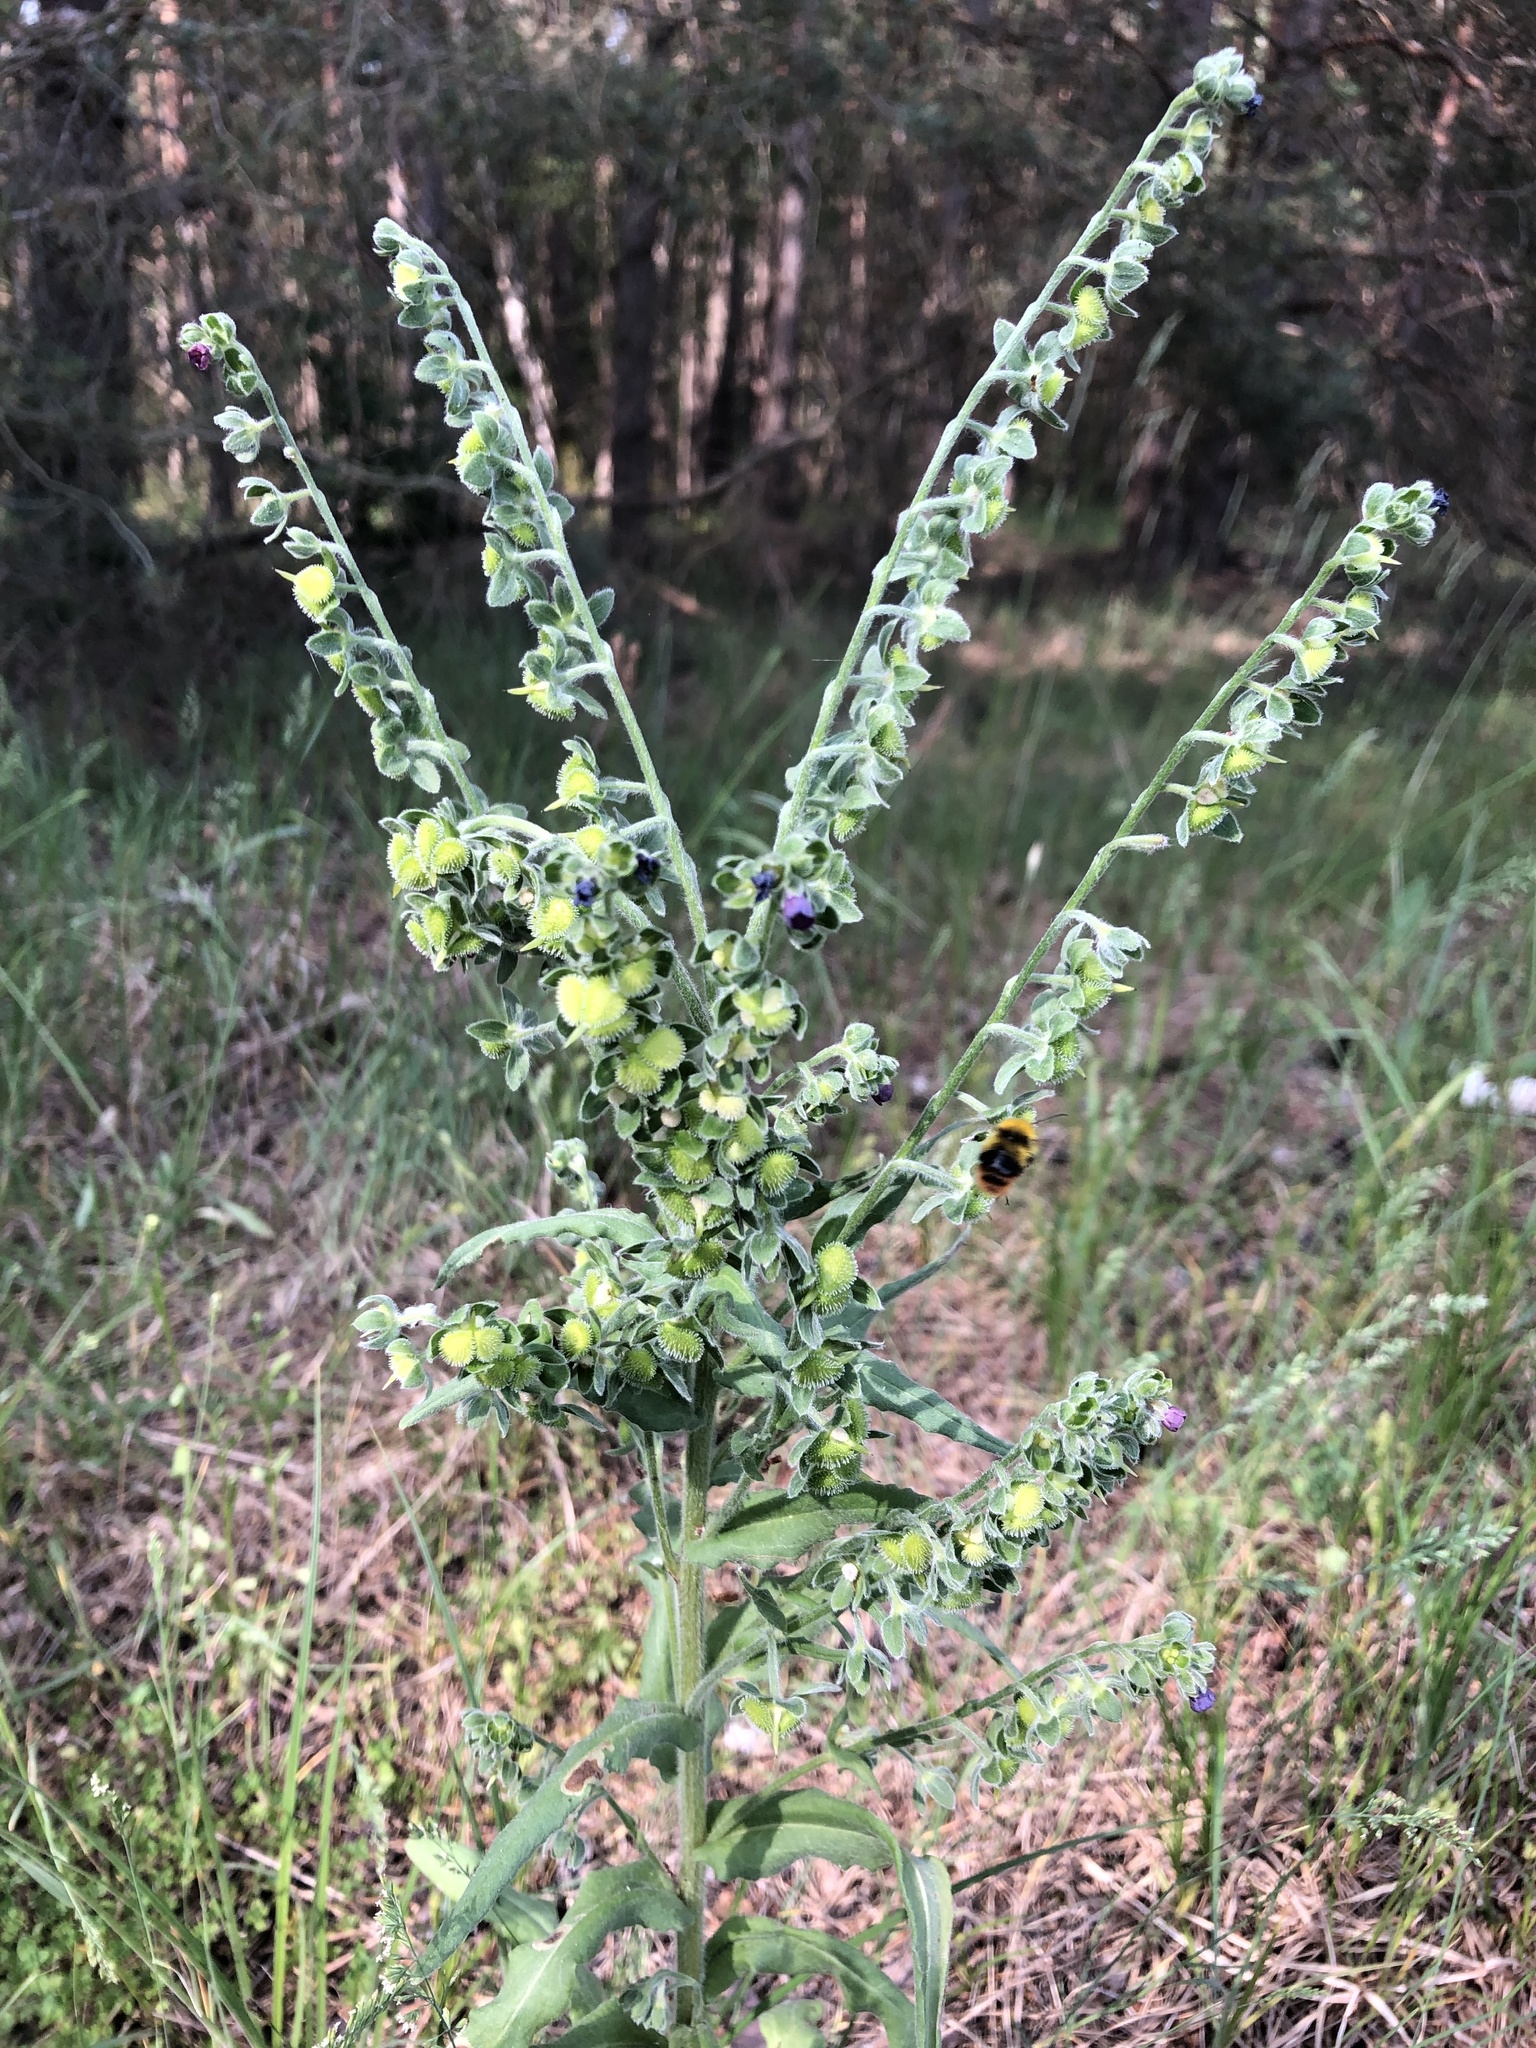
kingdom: Plantae
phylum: Tracheophyta
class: Magnoliopsida
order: Boraginales
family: Boraginaceae
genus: Cynoglossum
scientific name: Cynoglossum officinale
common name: Hound's-tongue
